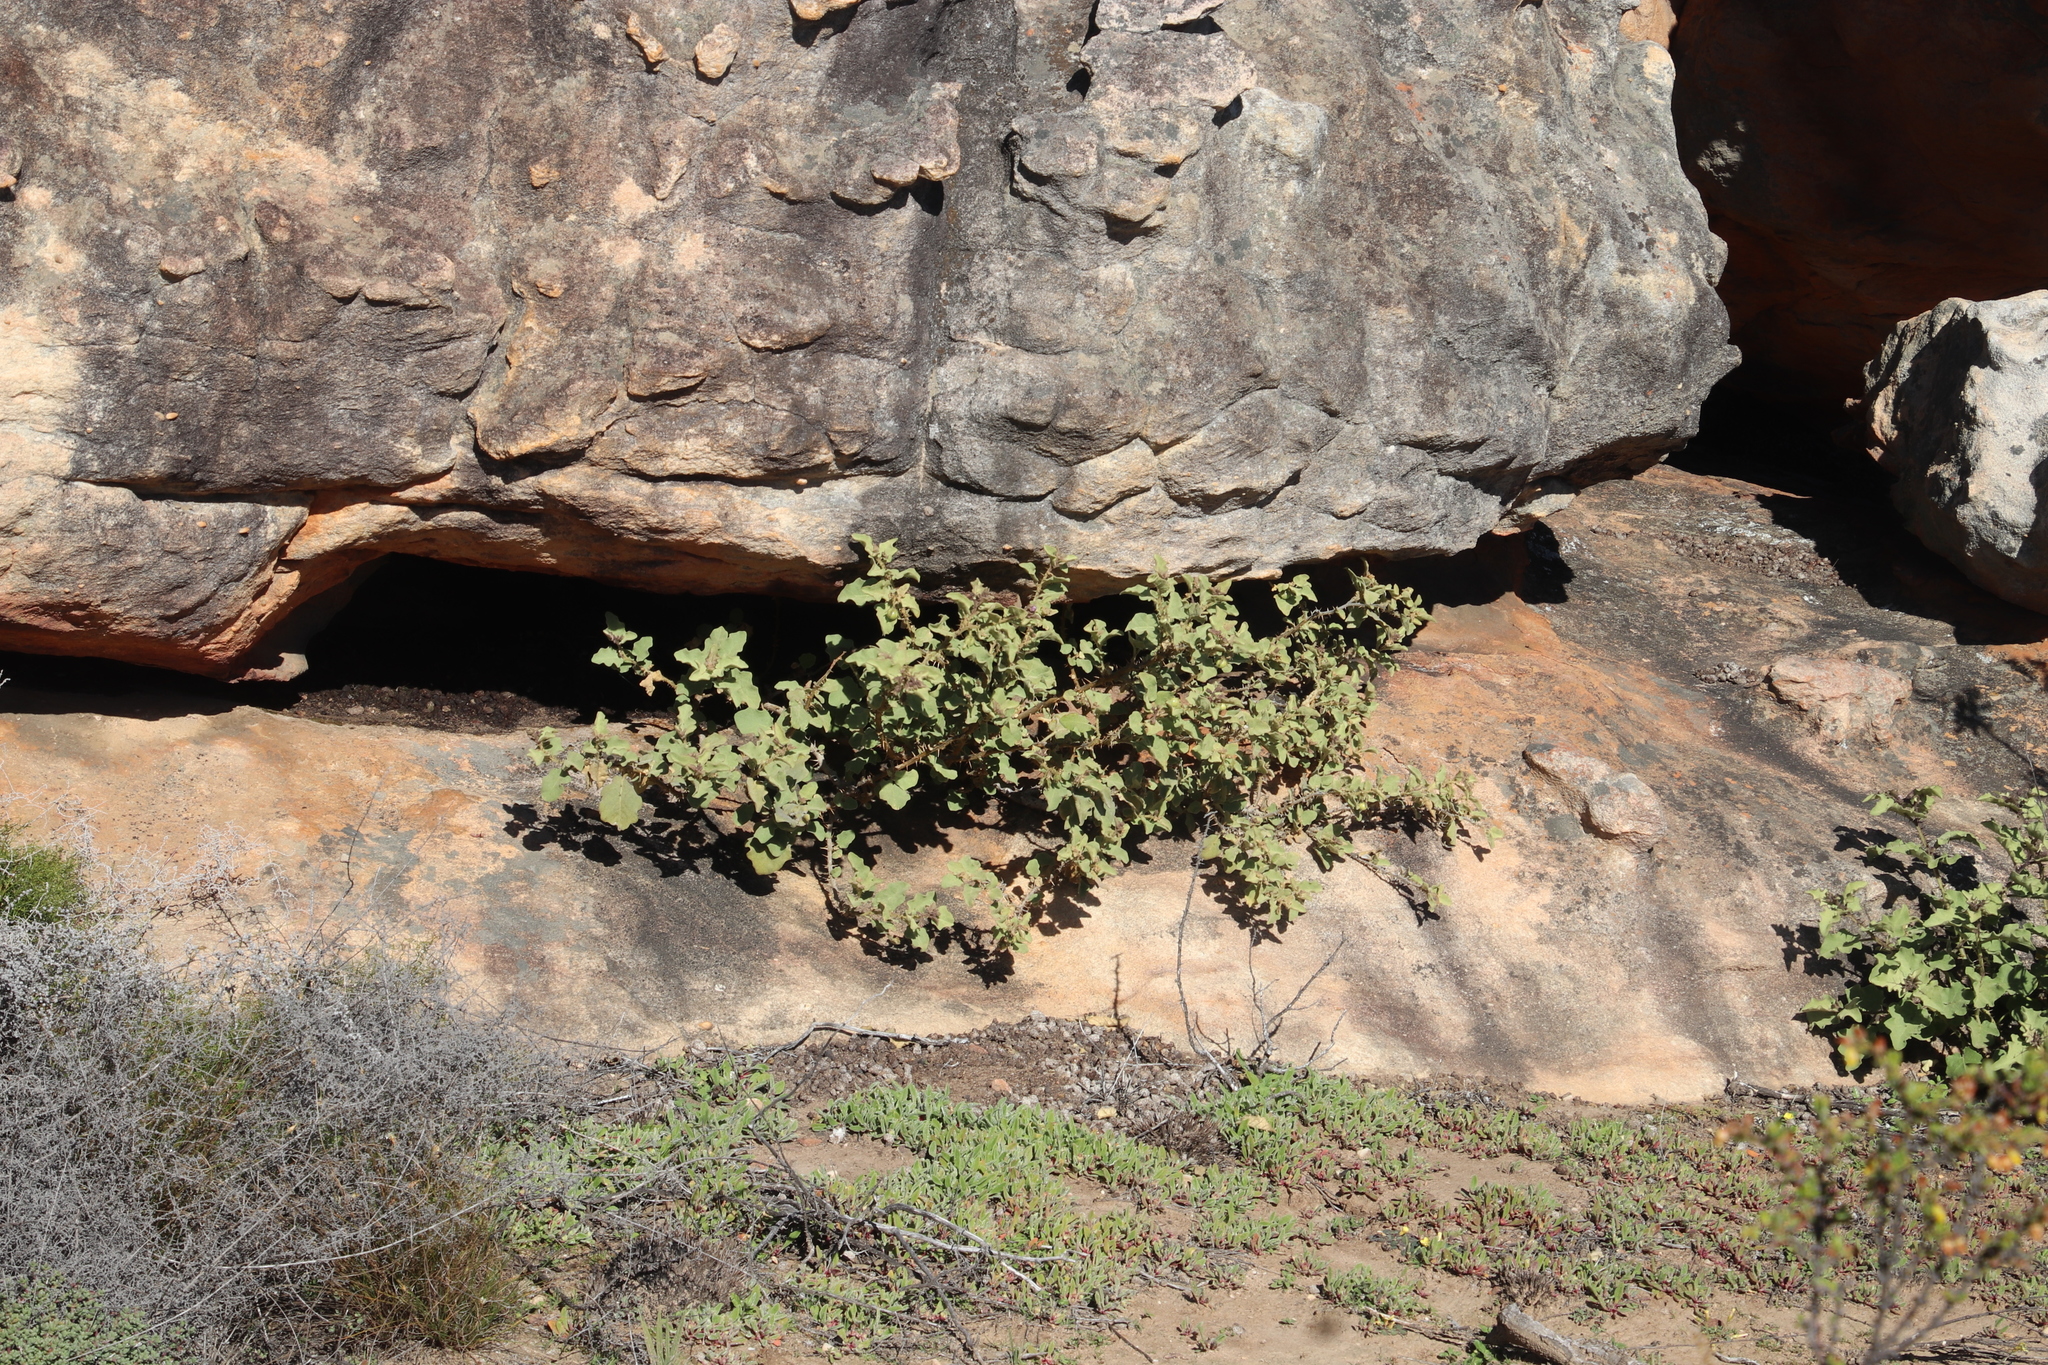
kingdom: Plantae
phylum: Tracheophyta
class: Magnoliopsida
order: Solanales
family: Solanaceae
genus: Solanum
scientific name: Solanum tomentosum
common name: Wild aubergine
